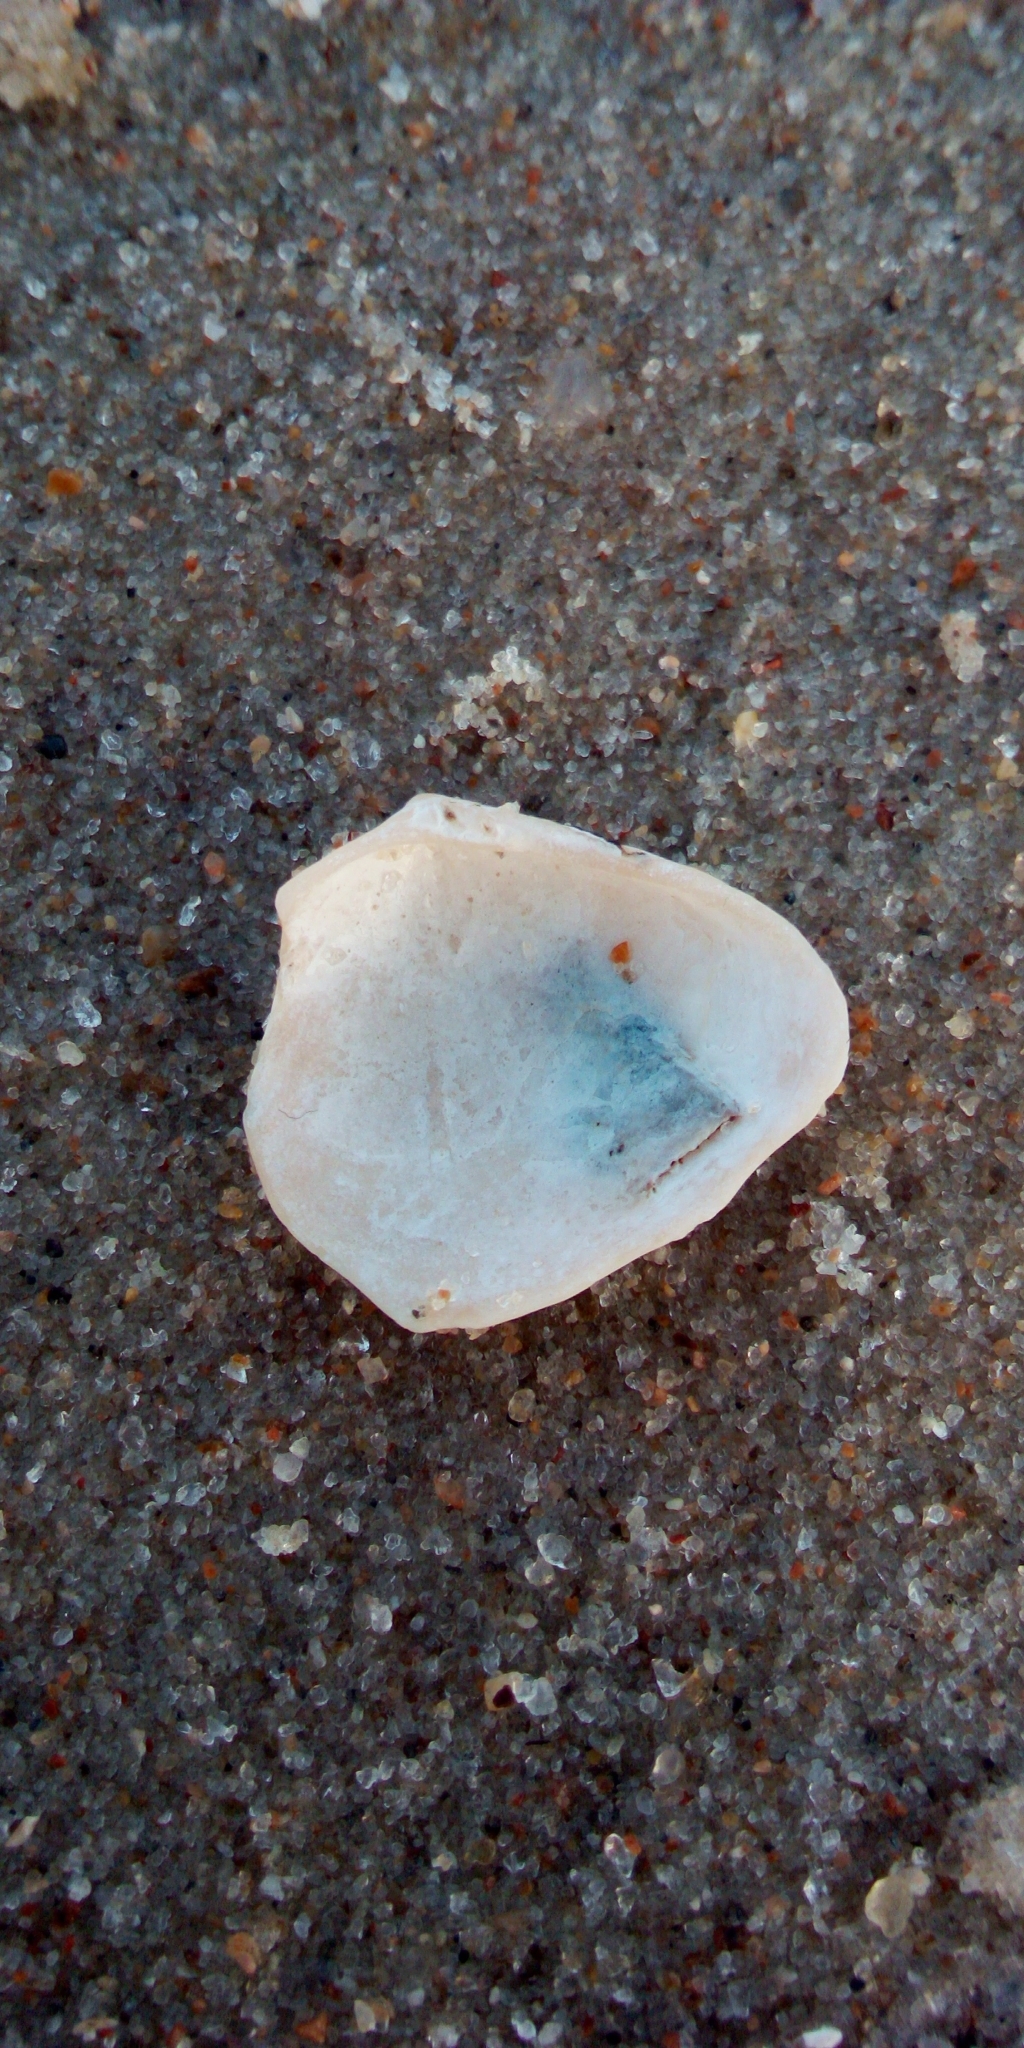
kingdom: Animalia
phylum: Mollusca
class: Bivalvia
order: Cardiida
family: Tellinidae
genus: Macoma
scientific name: Macoma balthica
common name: Baltic tellin
